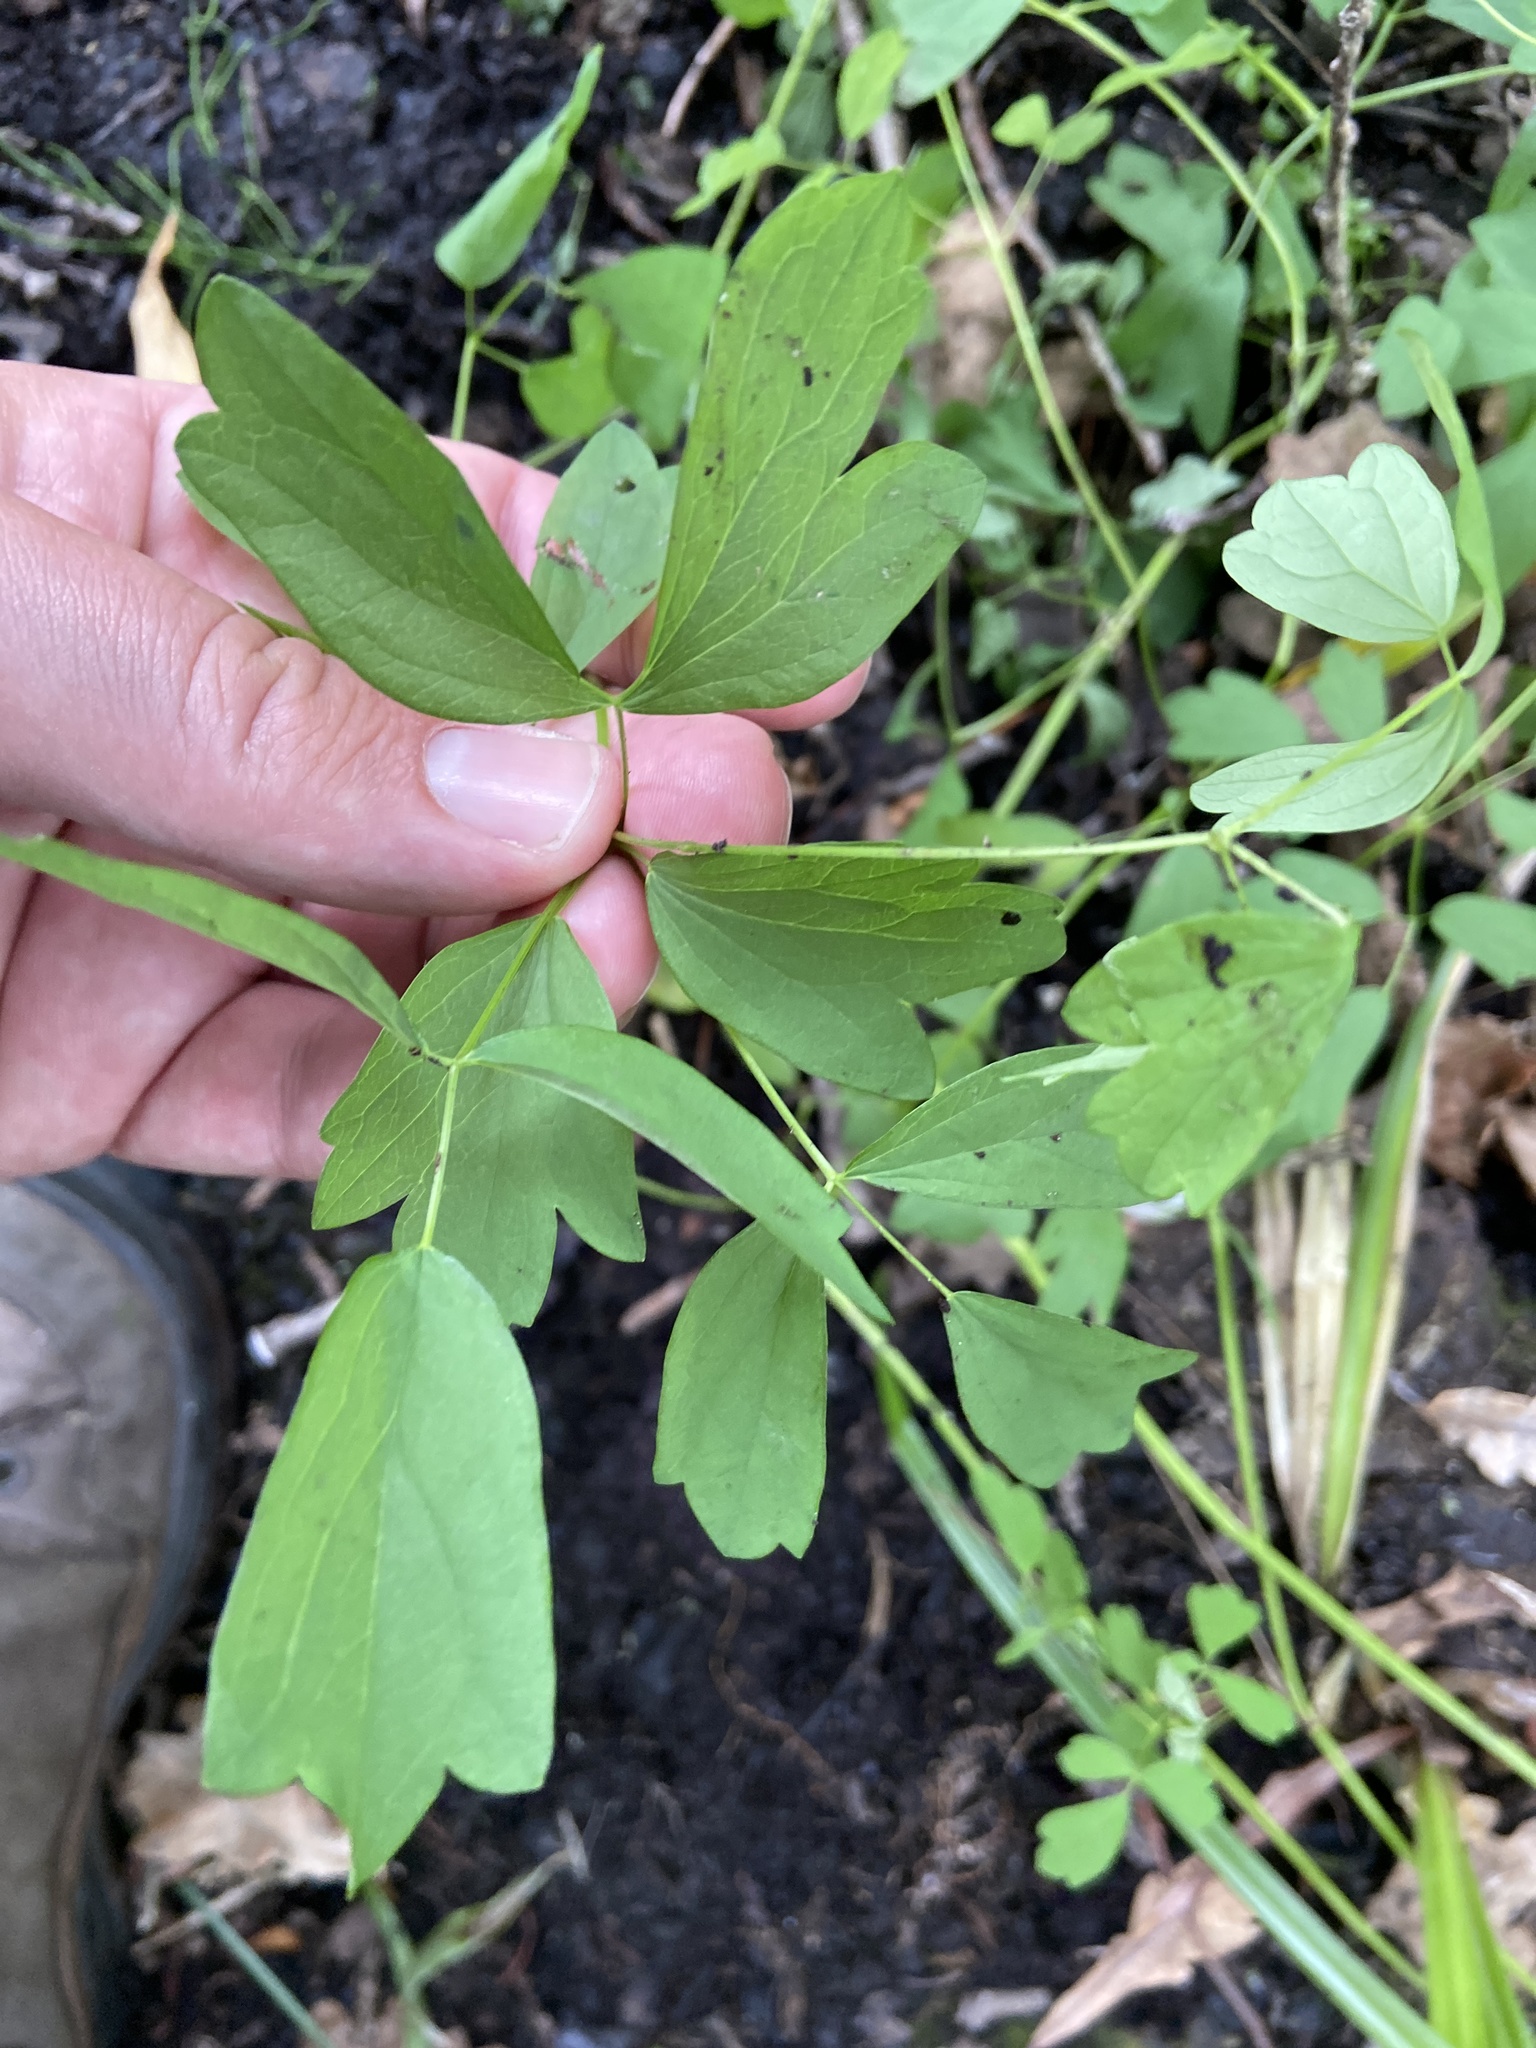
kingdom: Plantae
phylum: Tracheophyta
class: Magnoliopsida
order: Ranunculales
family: Ranunculaceae
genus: Thalictrum
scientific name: Thalictrum flavum
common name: Common meadow-rue
